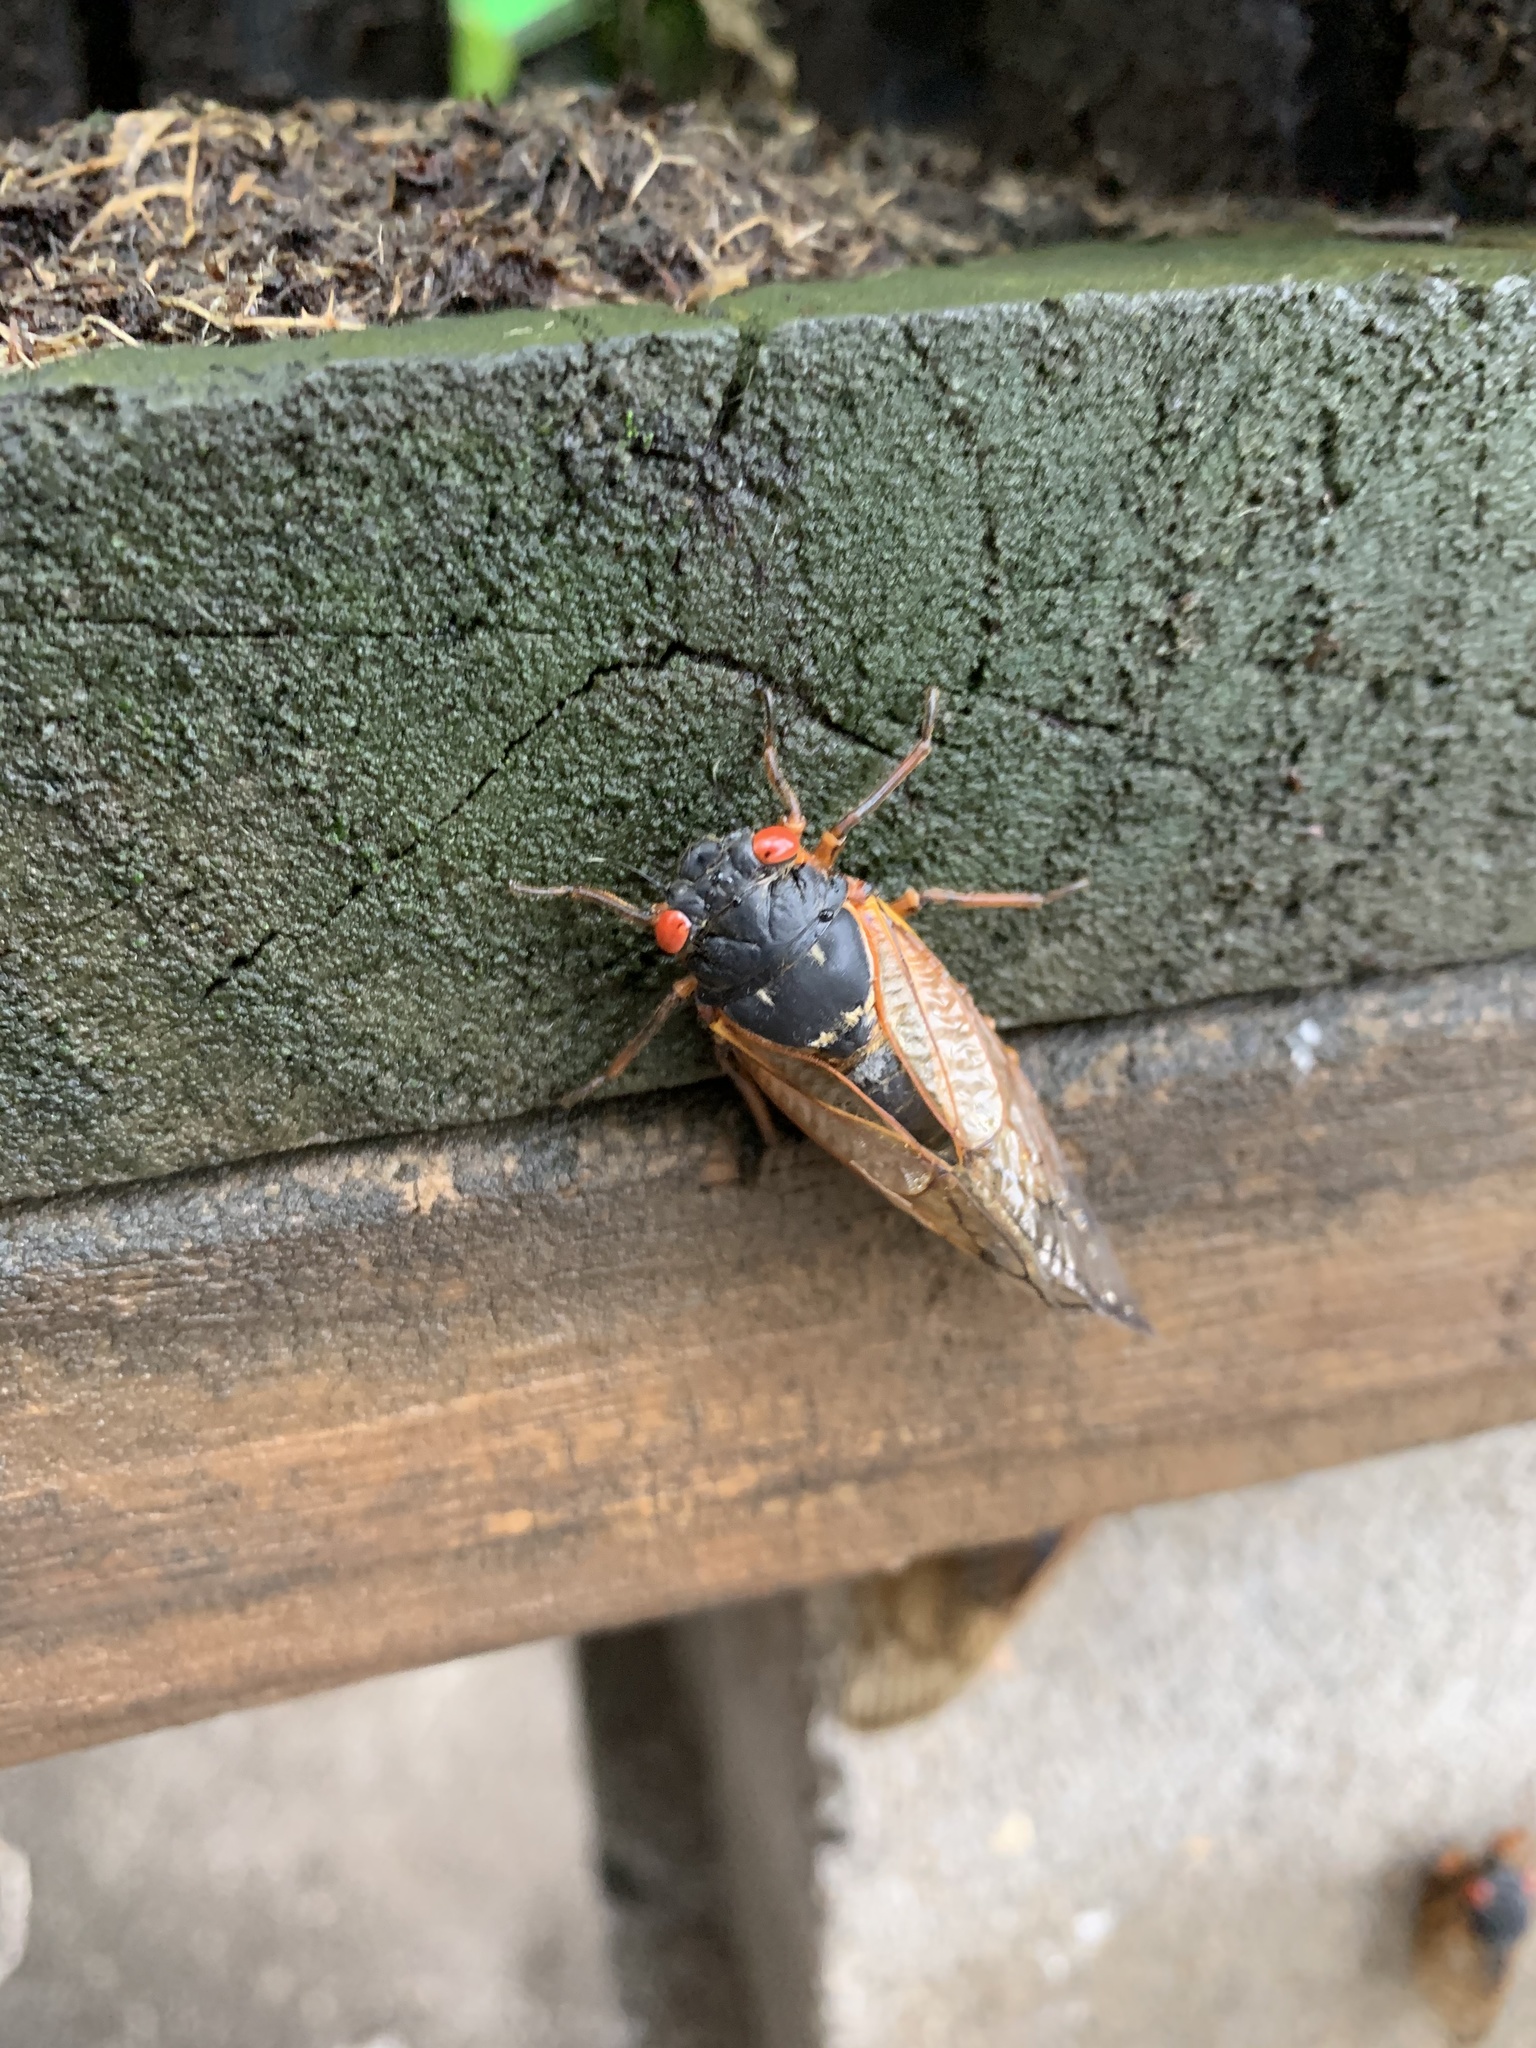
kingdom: Animalia
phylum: Arthropoda
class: Insecta
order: Hemiptera
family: Cicadidae
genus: Magicicada
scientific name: Magicicada
